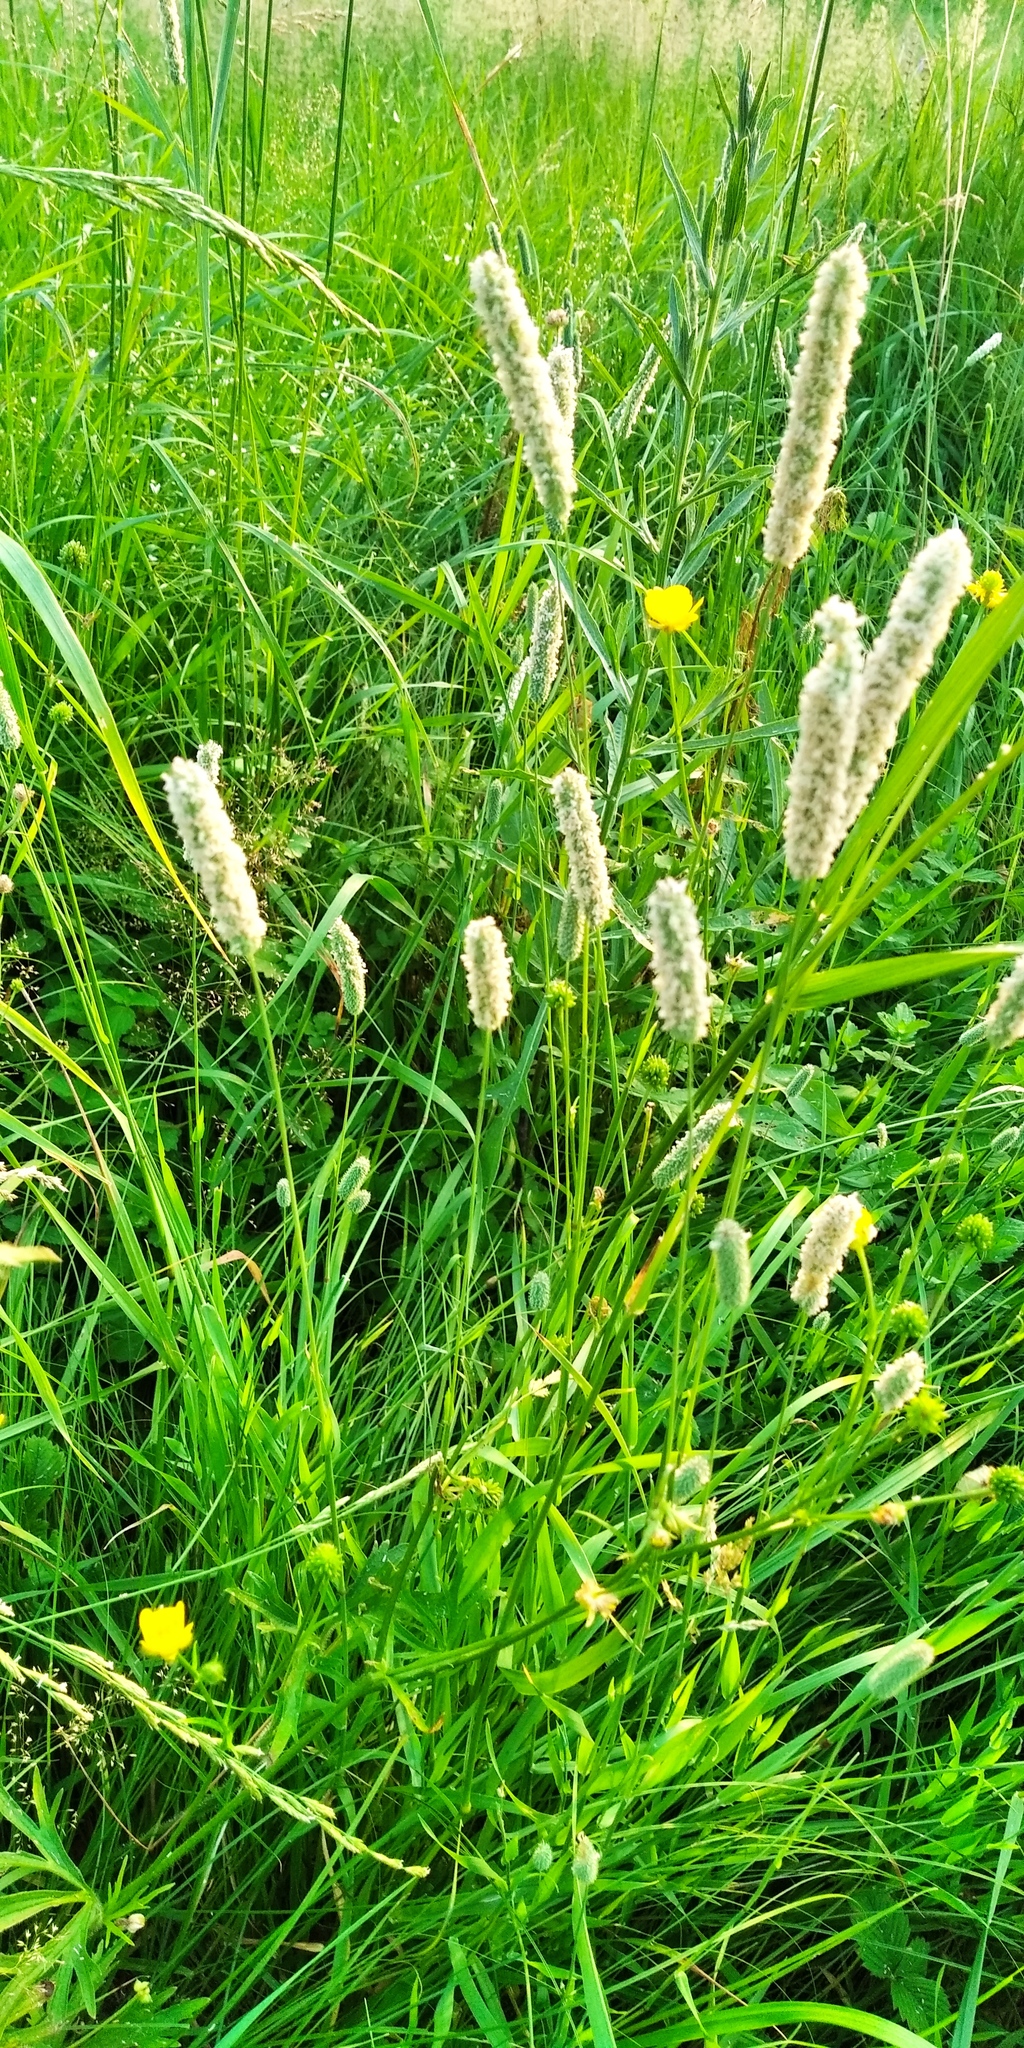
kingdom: Plantae
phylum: Tracheophyta
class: Liliopsida
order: Poales
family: Poaceae
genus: Phleum
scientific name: Phleum pratense
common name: Timothy grass
